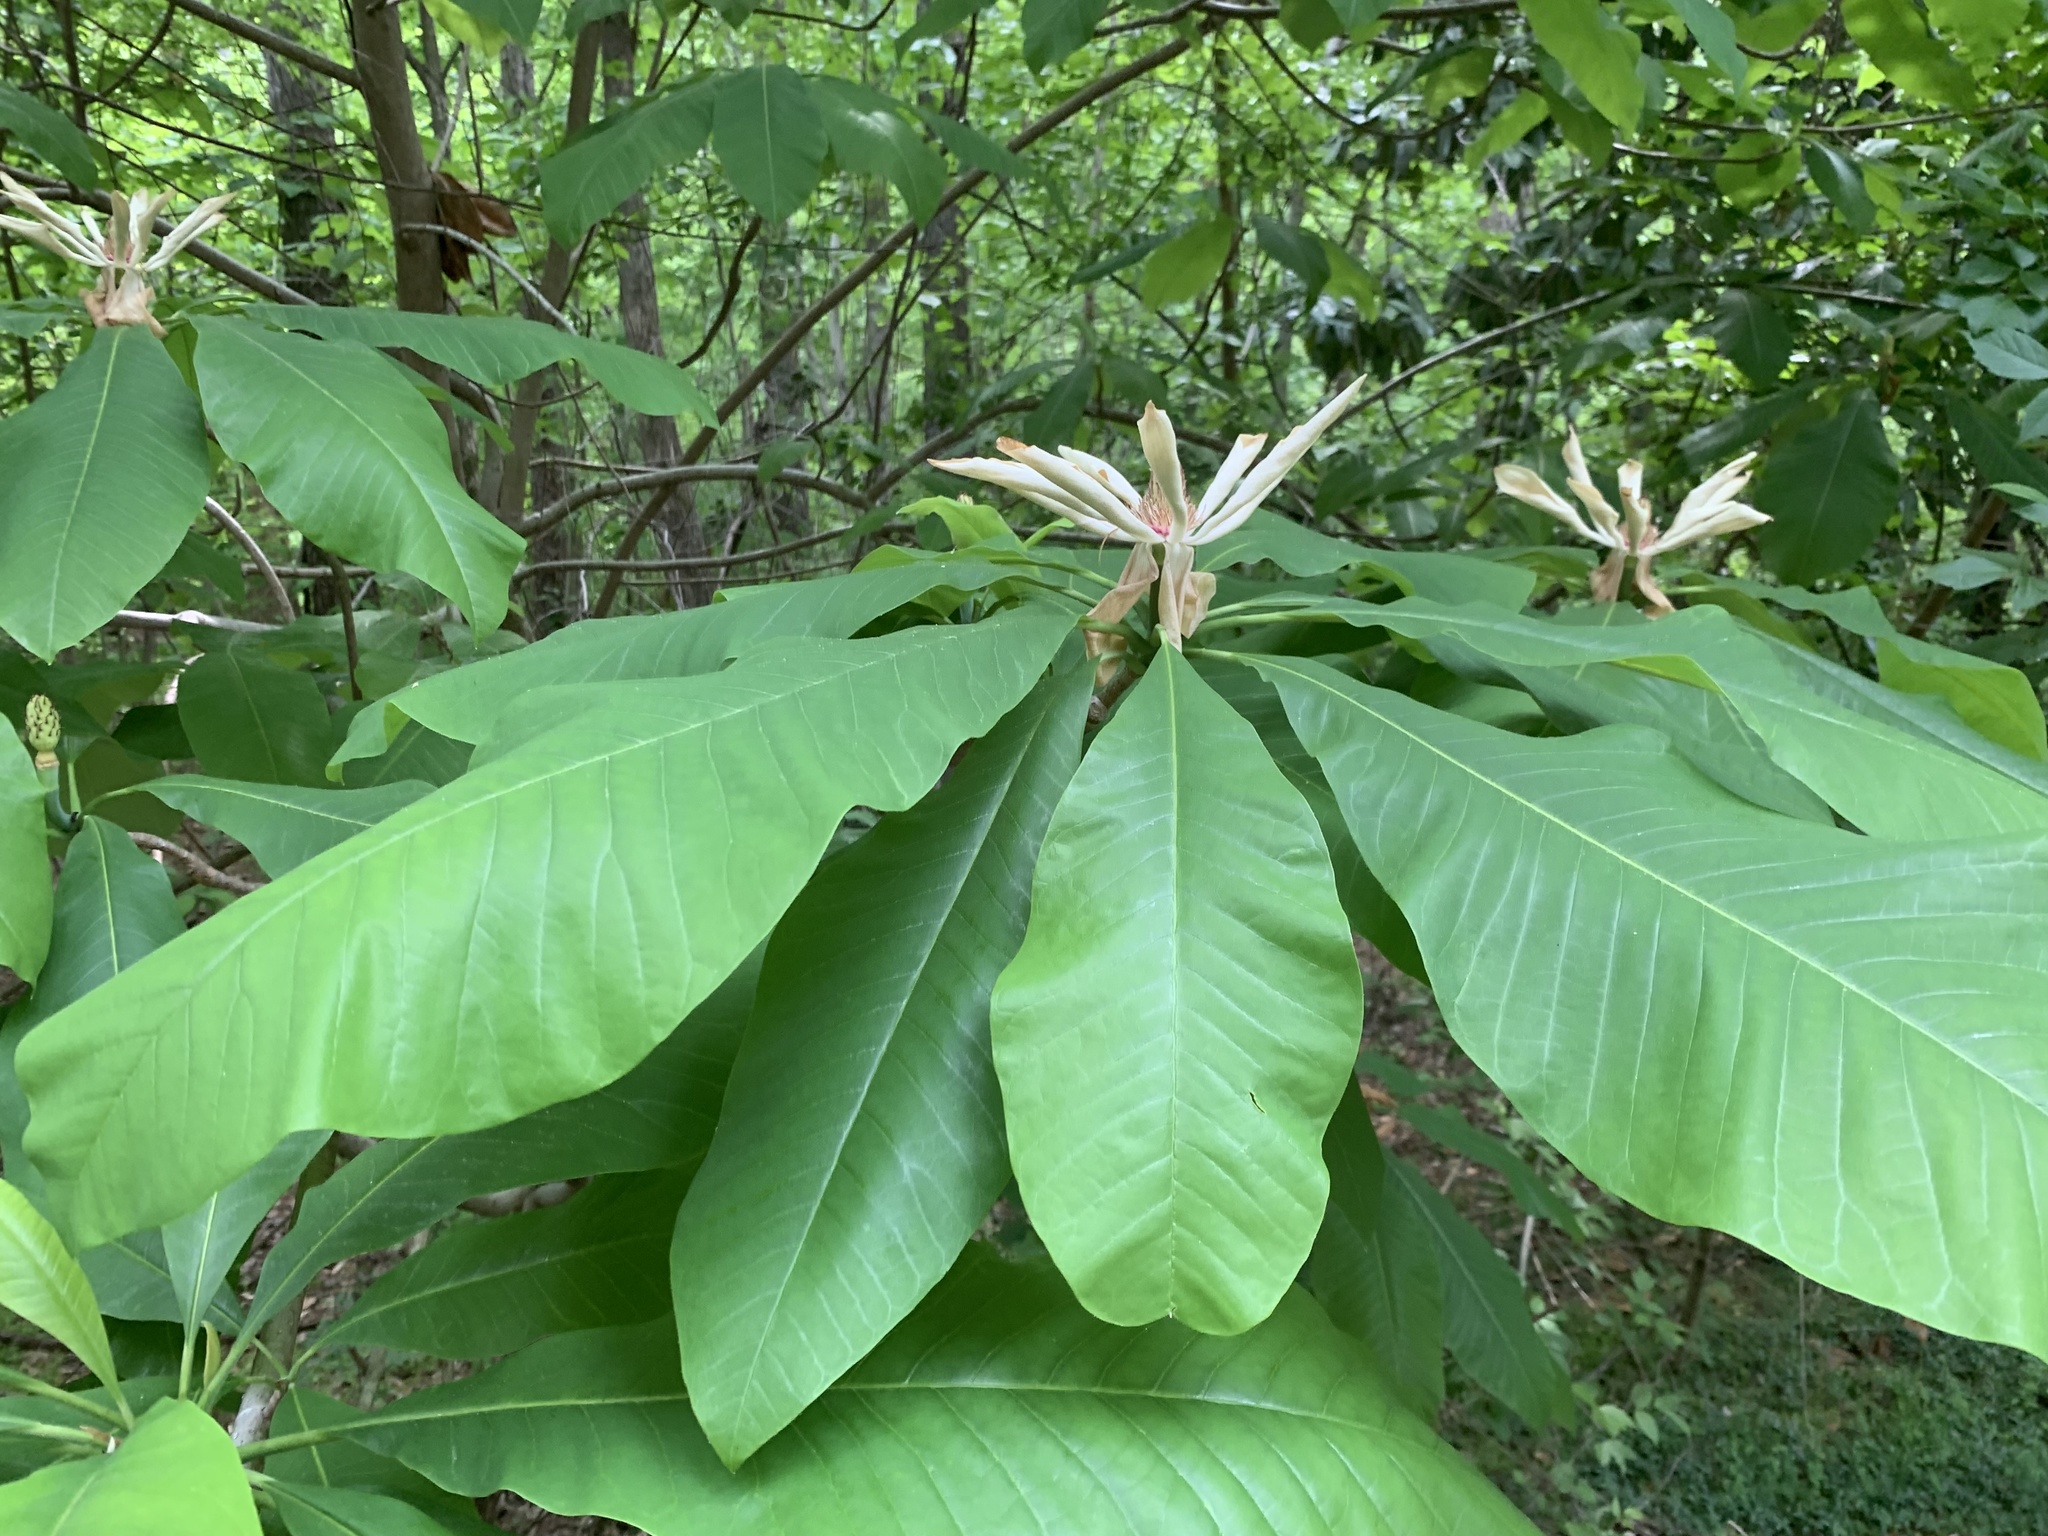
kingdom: Plantae
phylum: Tracheophyta
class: Magnoliopsida
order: Magnoliales
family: Magnoliaceae
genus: Magnolia
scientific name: Magnolia tripetala
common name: Umbrella magnolia
